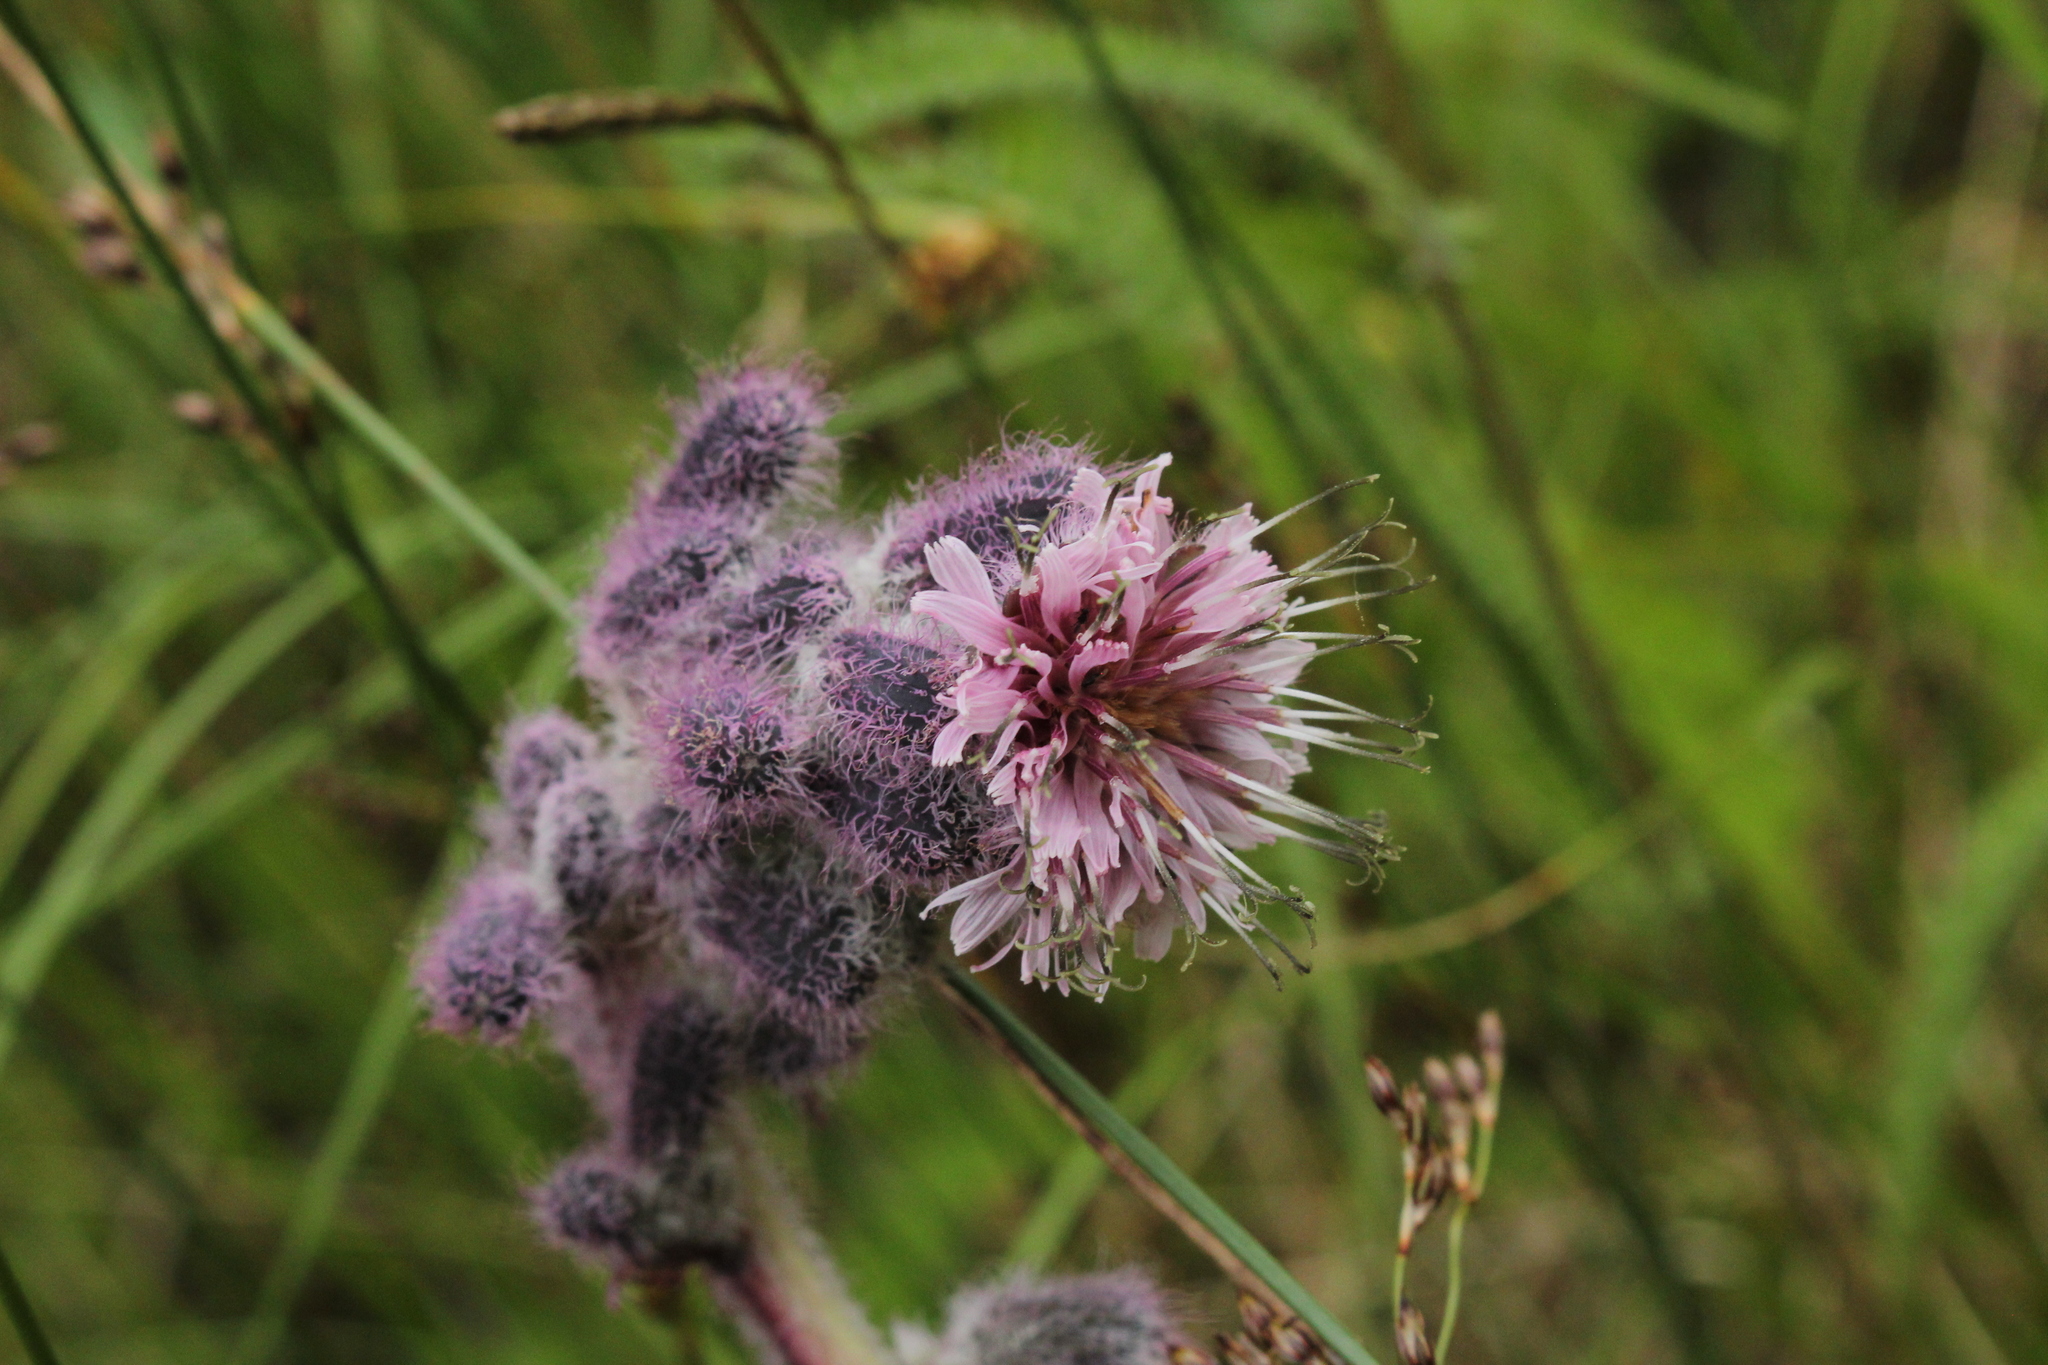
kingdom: Plantae
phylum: Tracheophyta
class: Magnoliopsida
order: Asterales
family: Asteraceae
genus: Nabalus
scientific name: Nabalus racemosus
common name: Glaucous white lettuce
